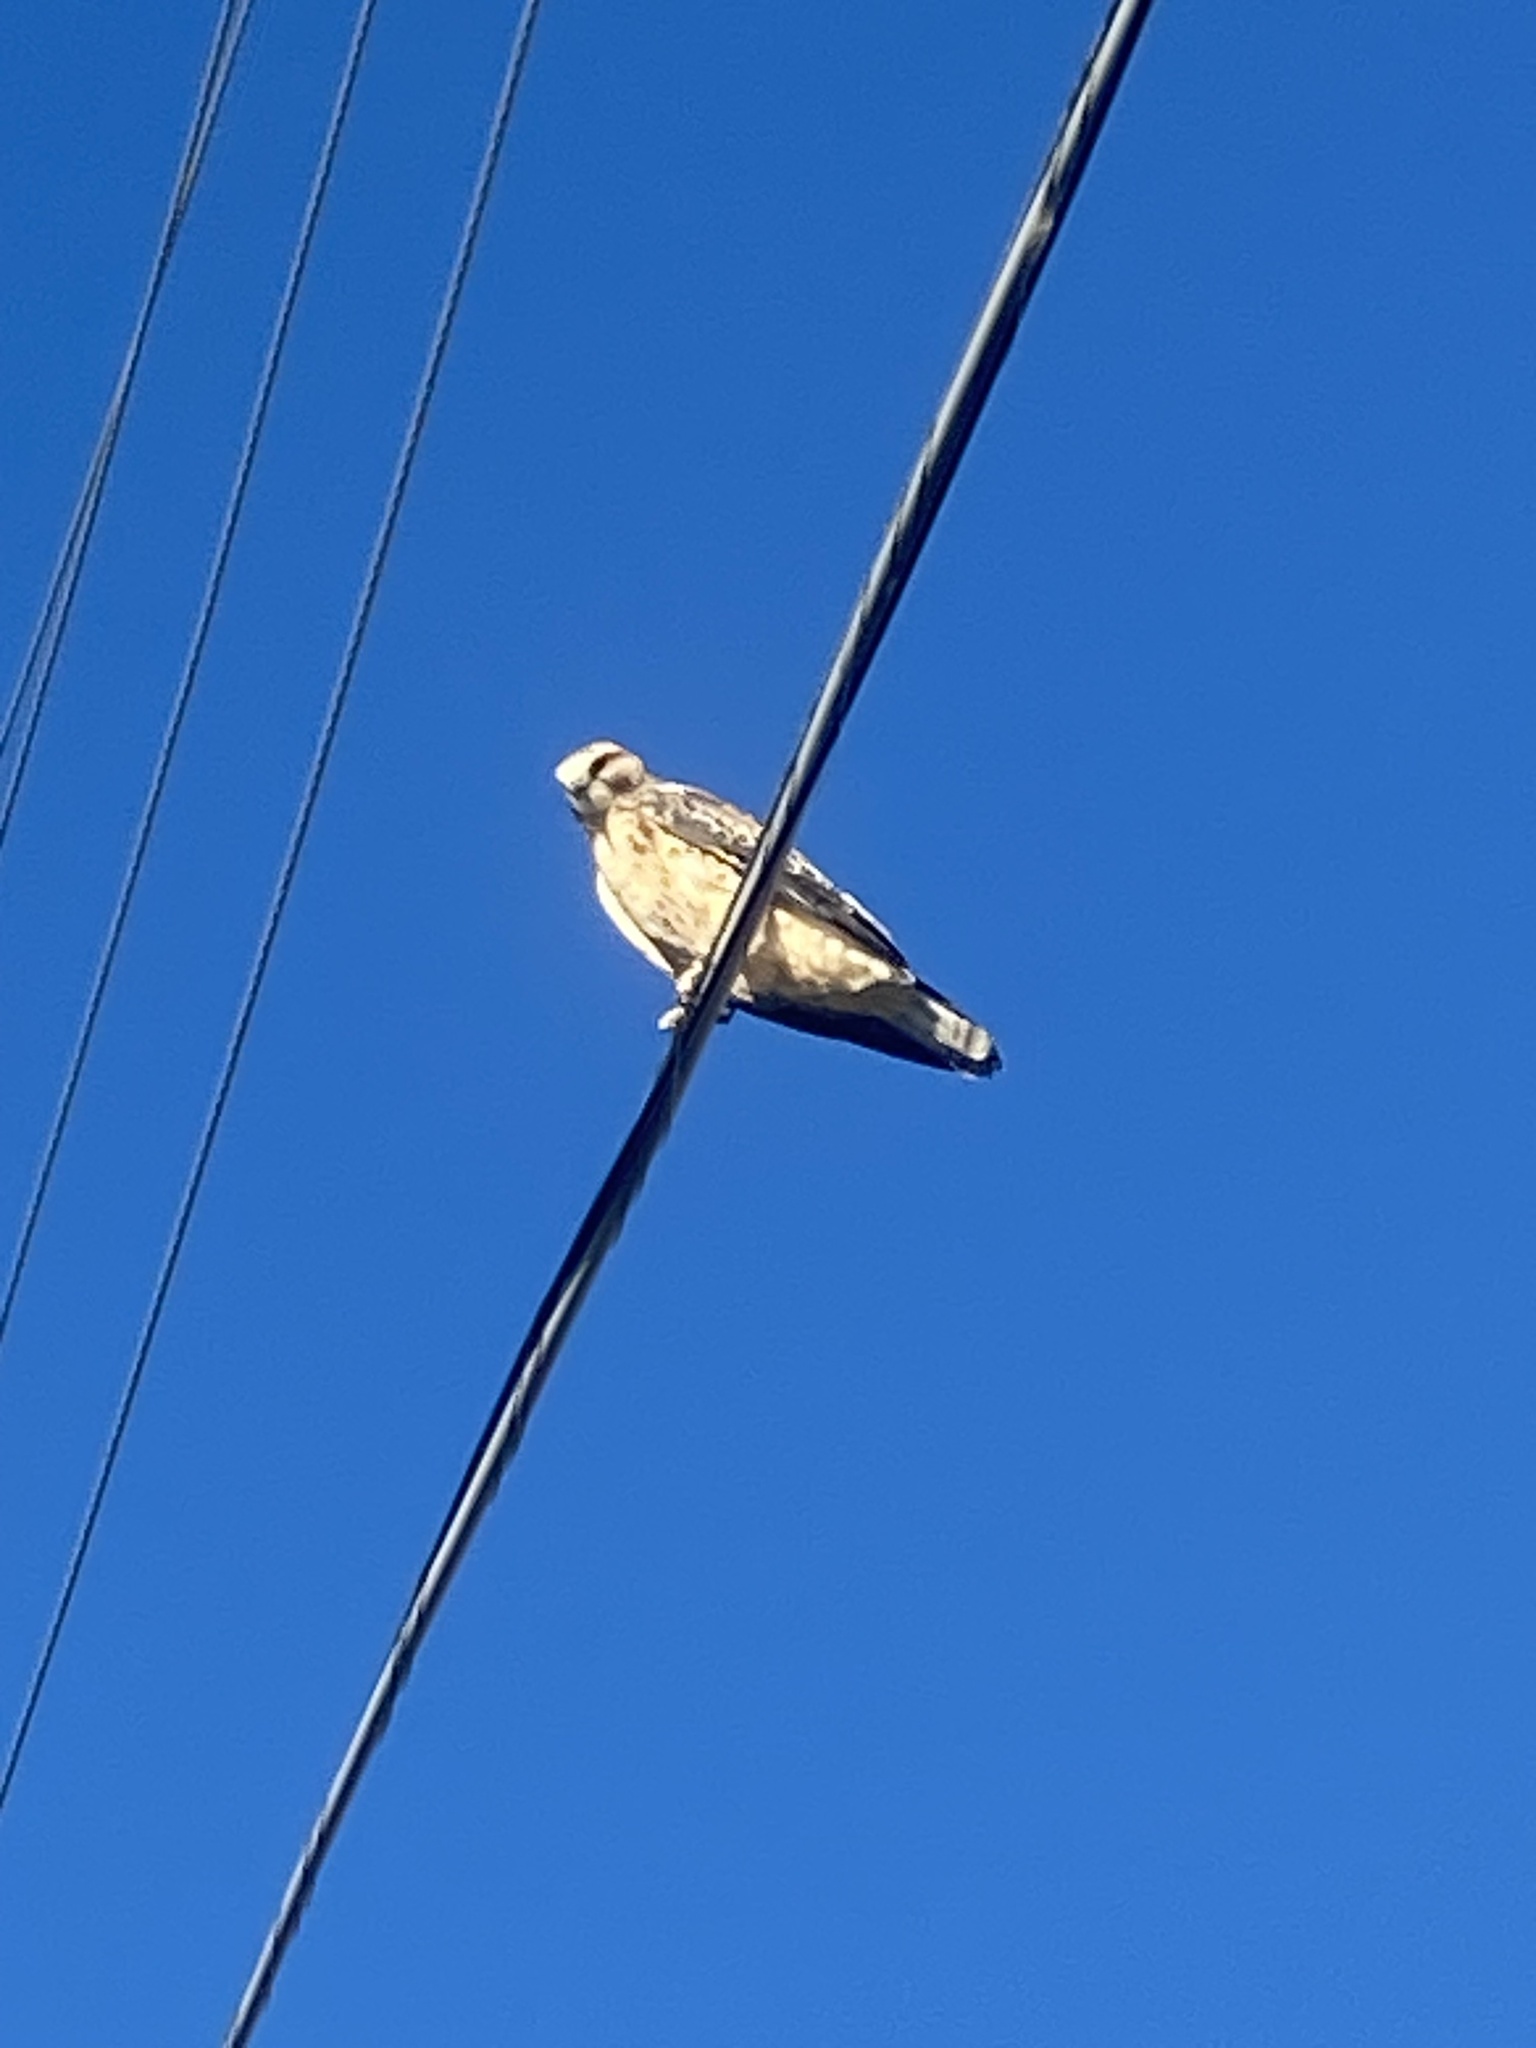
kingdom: Animalia
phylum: Chordata
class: Aves
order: Accipitriformes
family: Accipitridae
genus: Buteo
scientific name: Buteo swainsoni
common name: Swainson's hawk
